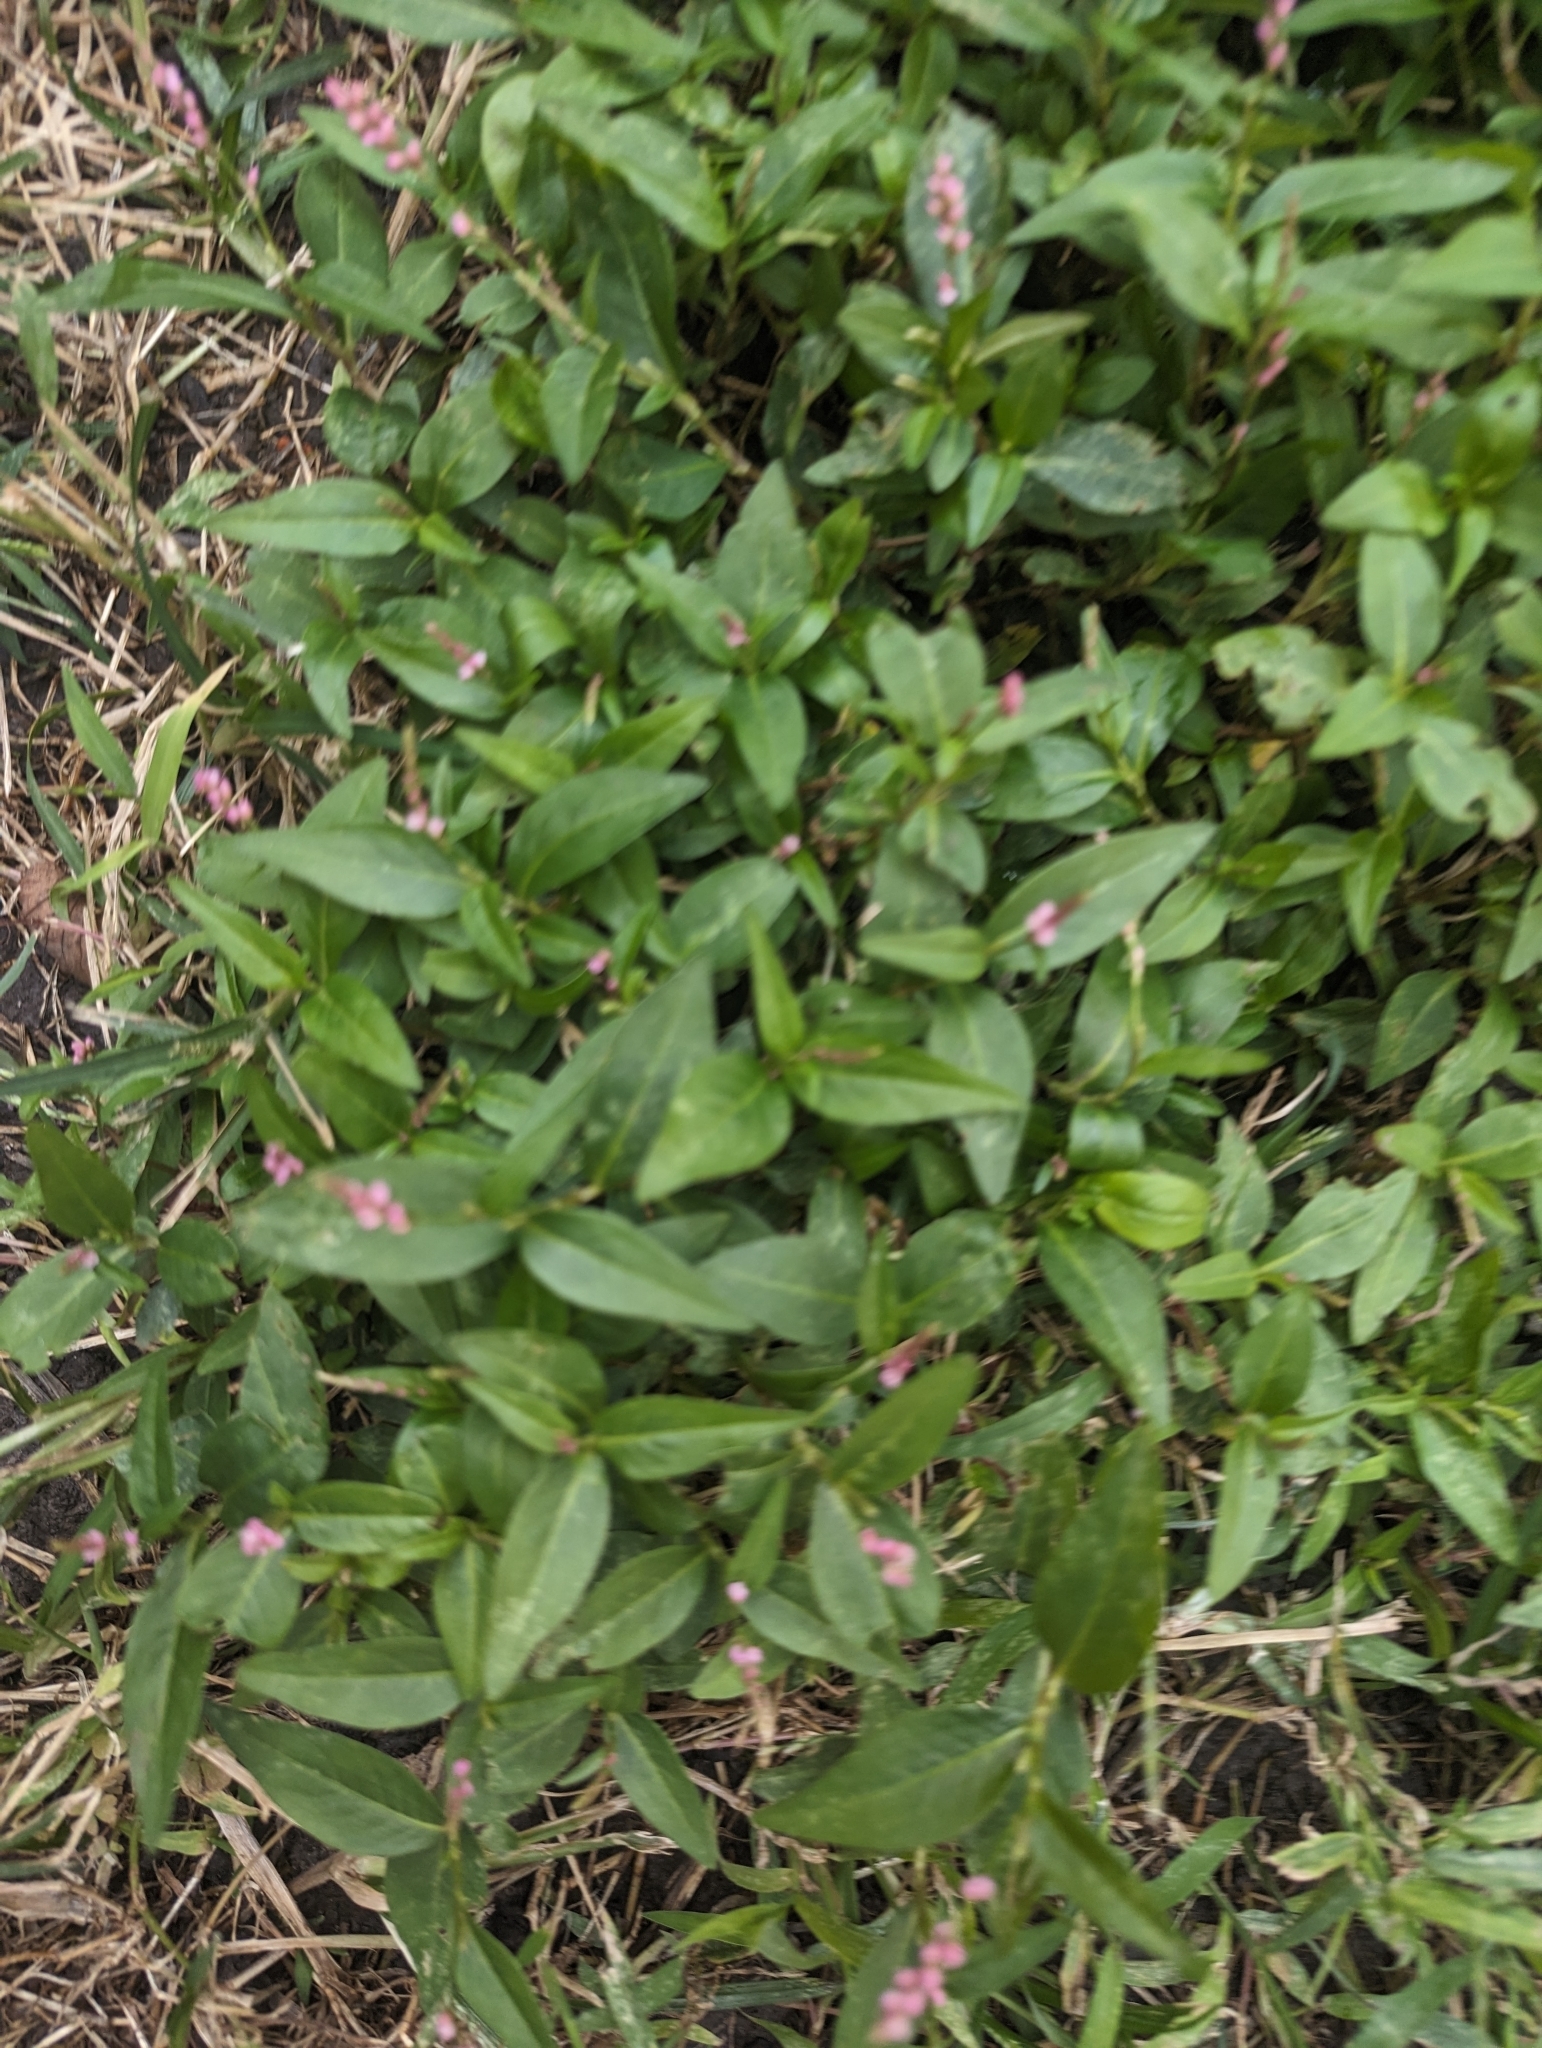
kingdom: Plantae
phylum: Tracheophyta
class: Magnoliopsida
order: Caryophyllales
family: Polygonaceae
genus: Persicaria
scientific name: Persicaria longiseta
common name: Bristly lady's-thumb
